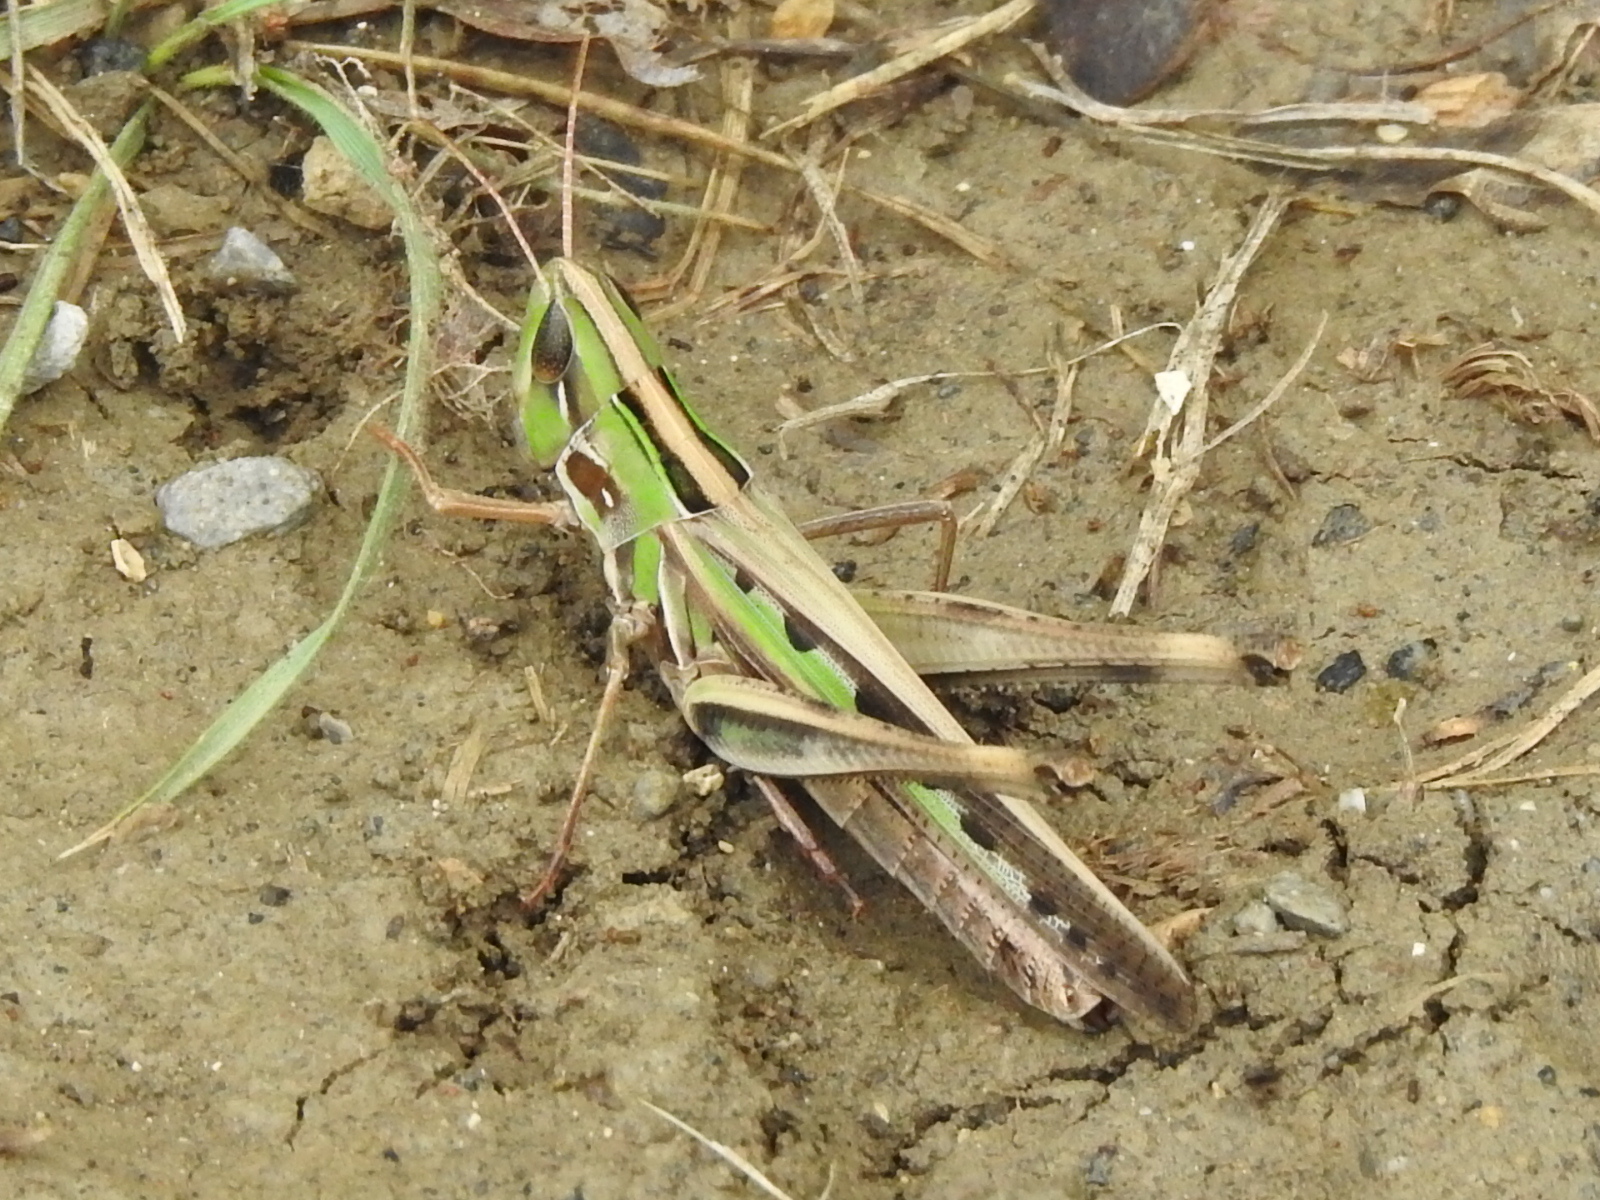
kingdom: Animalia
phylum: Arthropoda
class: Insecta
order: Orthoptera
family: Acrididae
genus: Syrbula
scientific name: Syrbula admirabilis
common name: Handsome grasshopper
